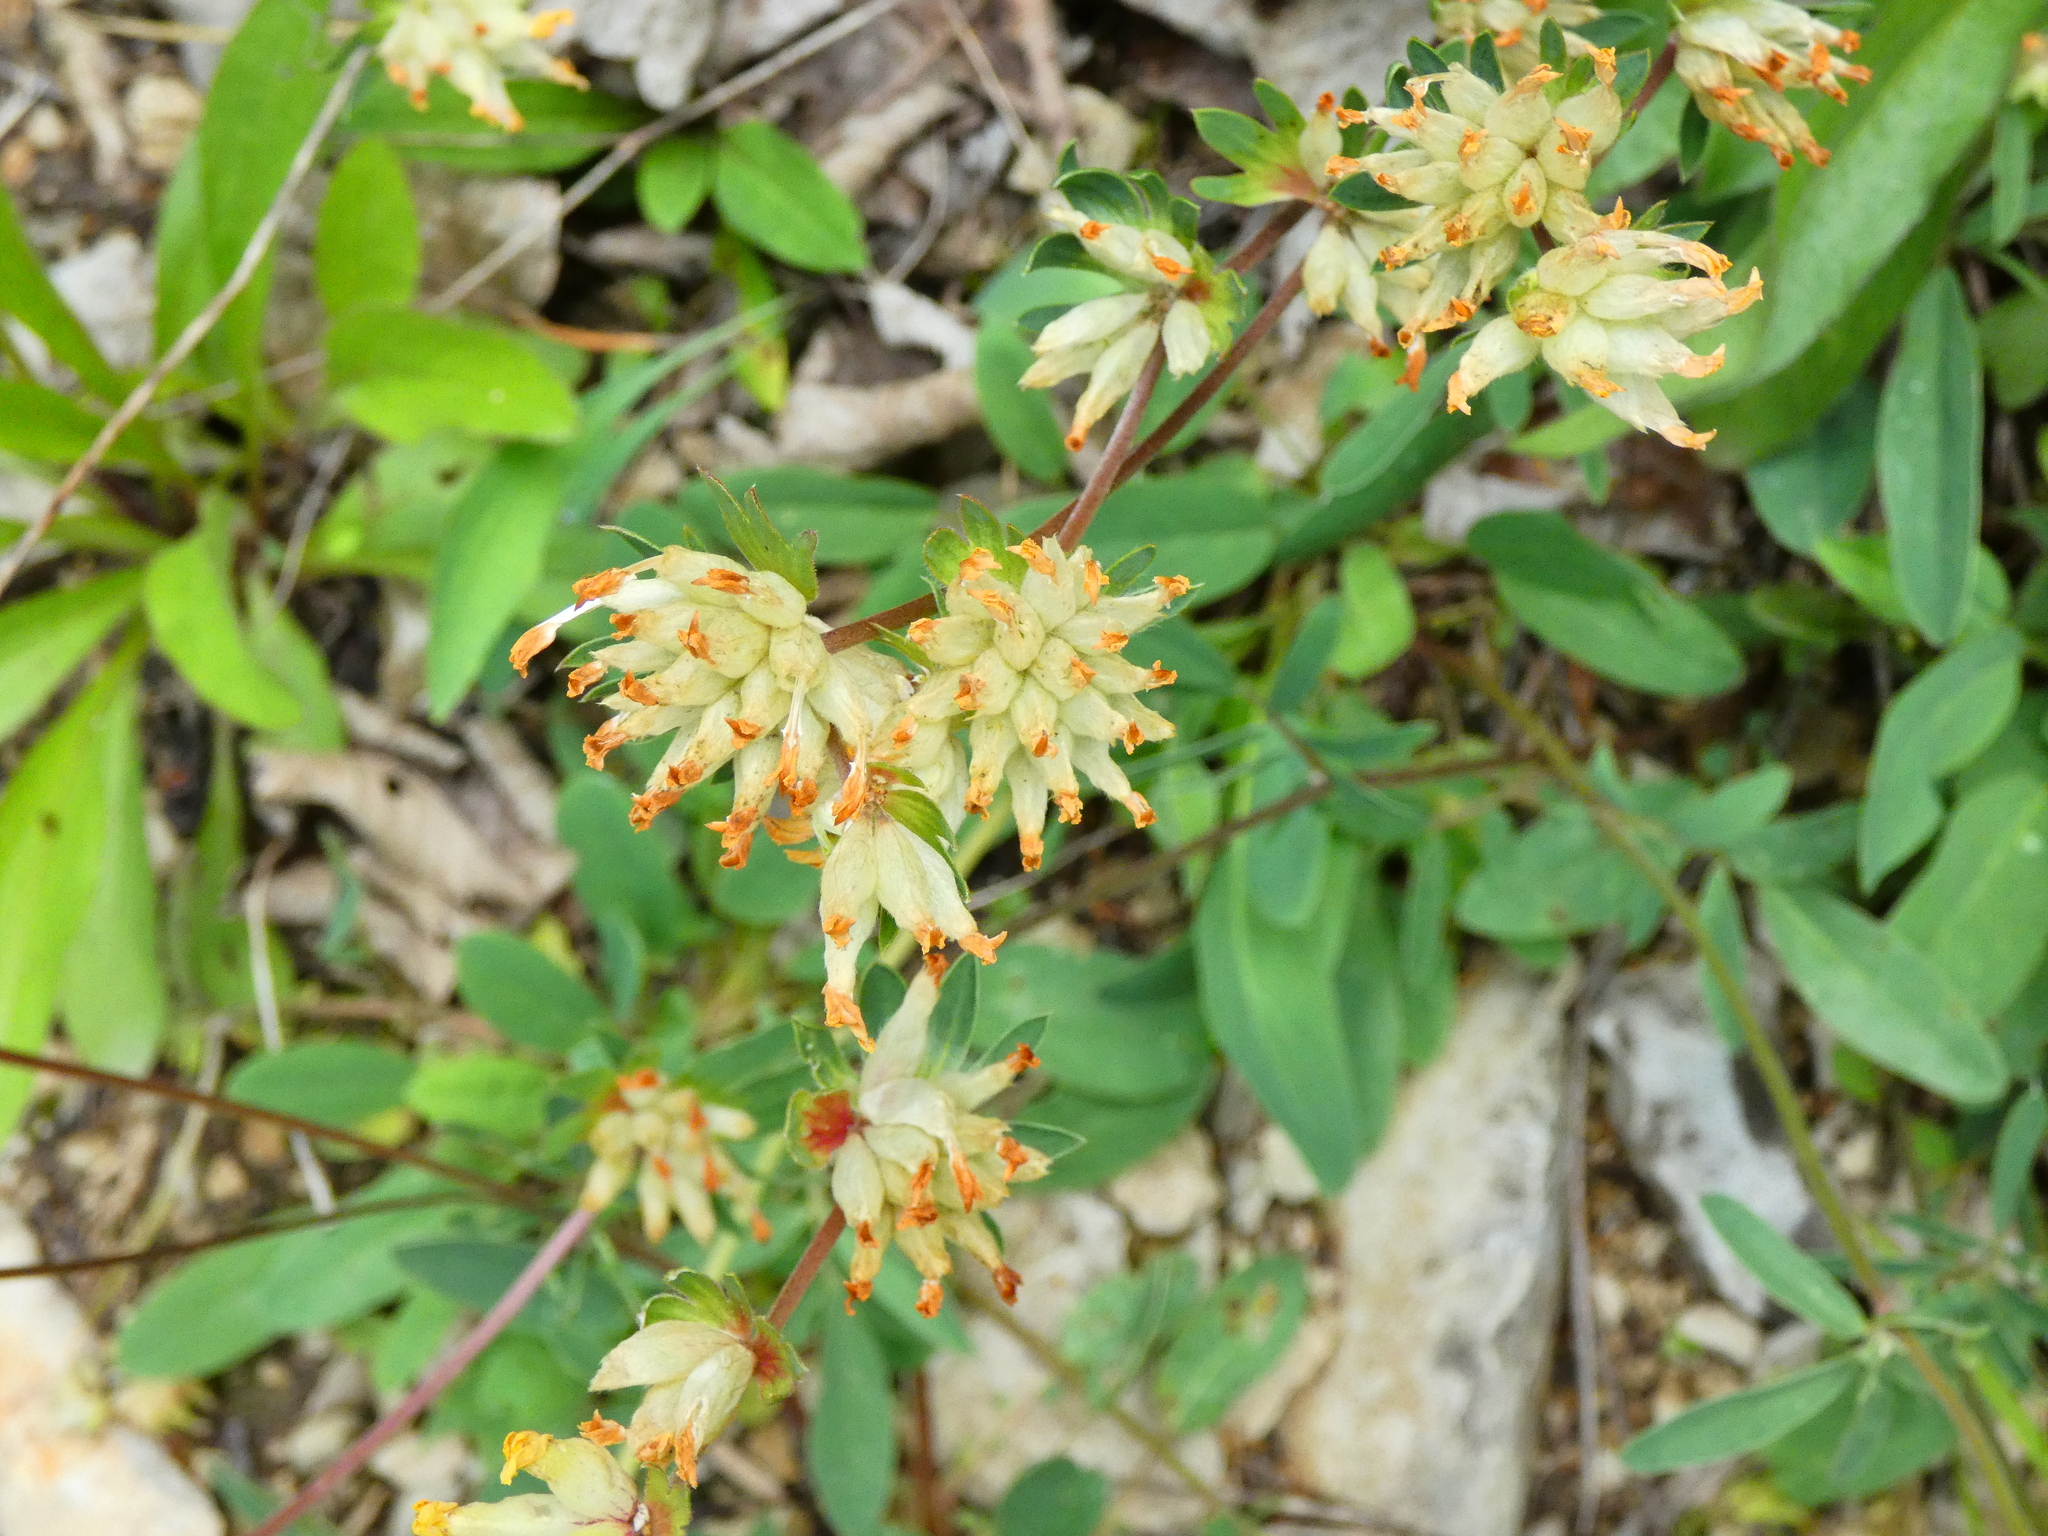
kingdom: Plantae
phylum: Tracheophyta
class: Magnoliopsida
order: Fabales
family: Fabaceae
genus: Anthyllis
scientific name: Anthyllis vulneraria
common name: Kidney vetch
